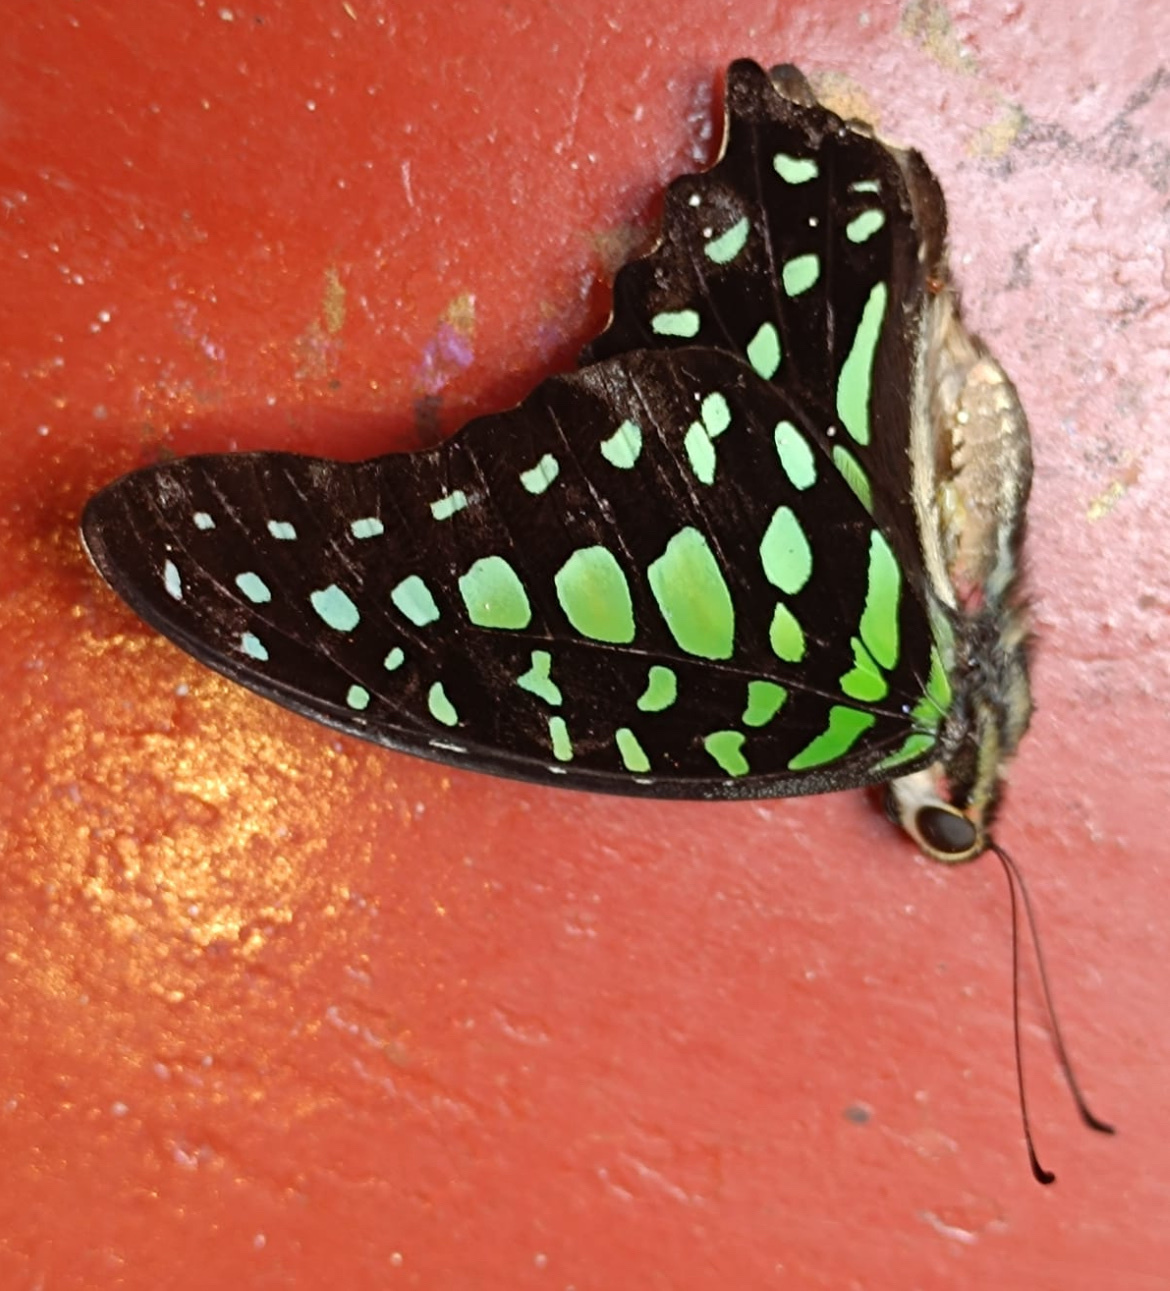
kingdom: Animalia
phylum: Arthropoda
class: Insecta
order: Lepidoptera
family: Papilionidae
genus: Graphium
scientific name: Graphium agamemnon
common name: Tailed jay
